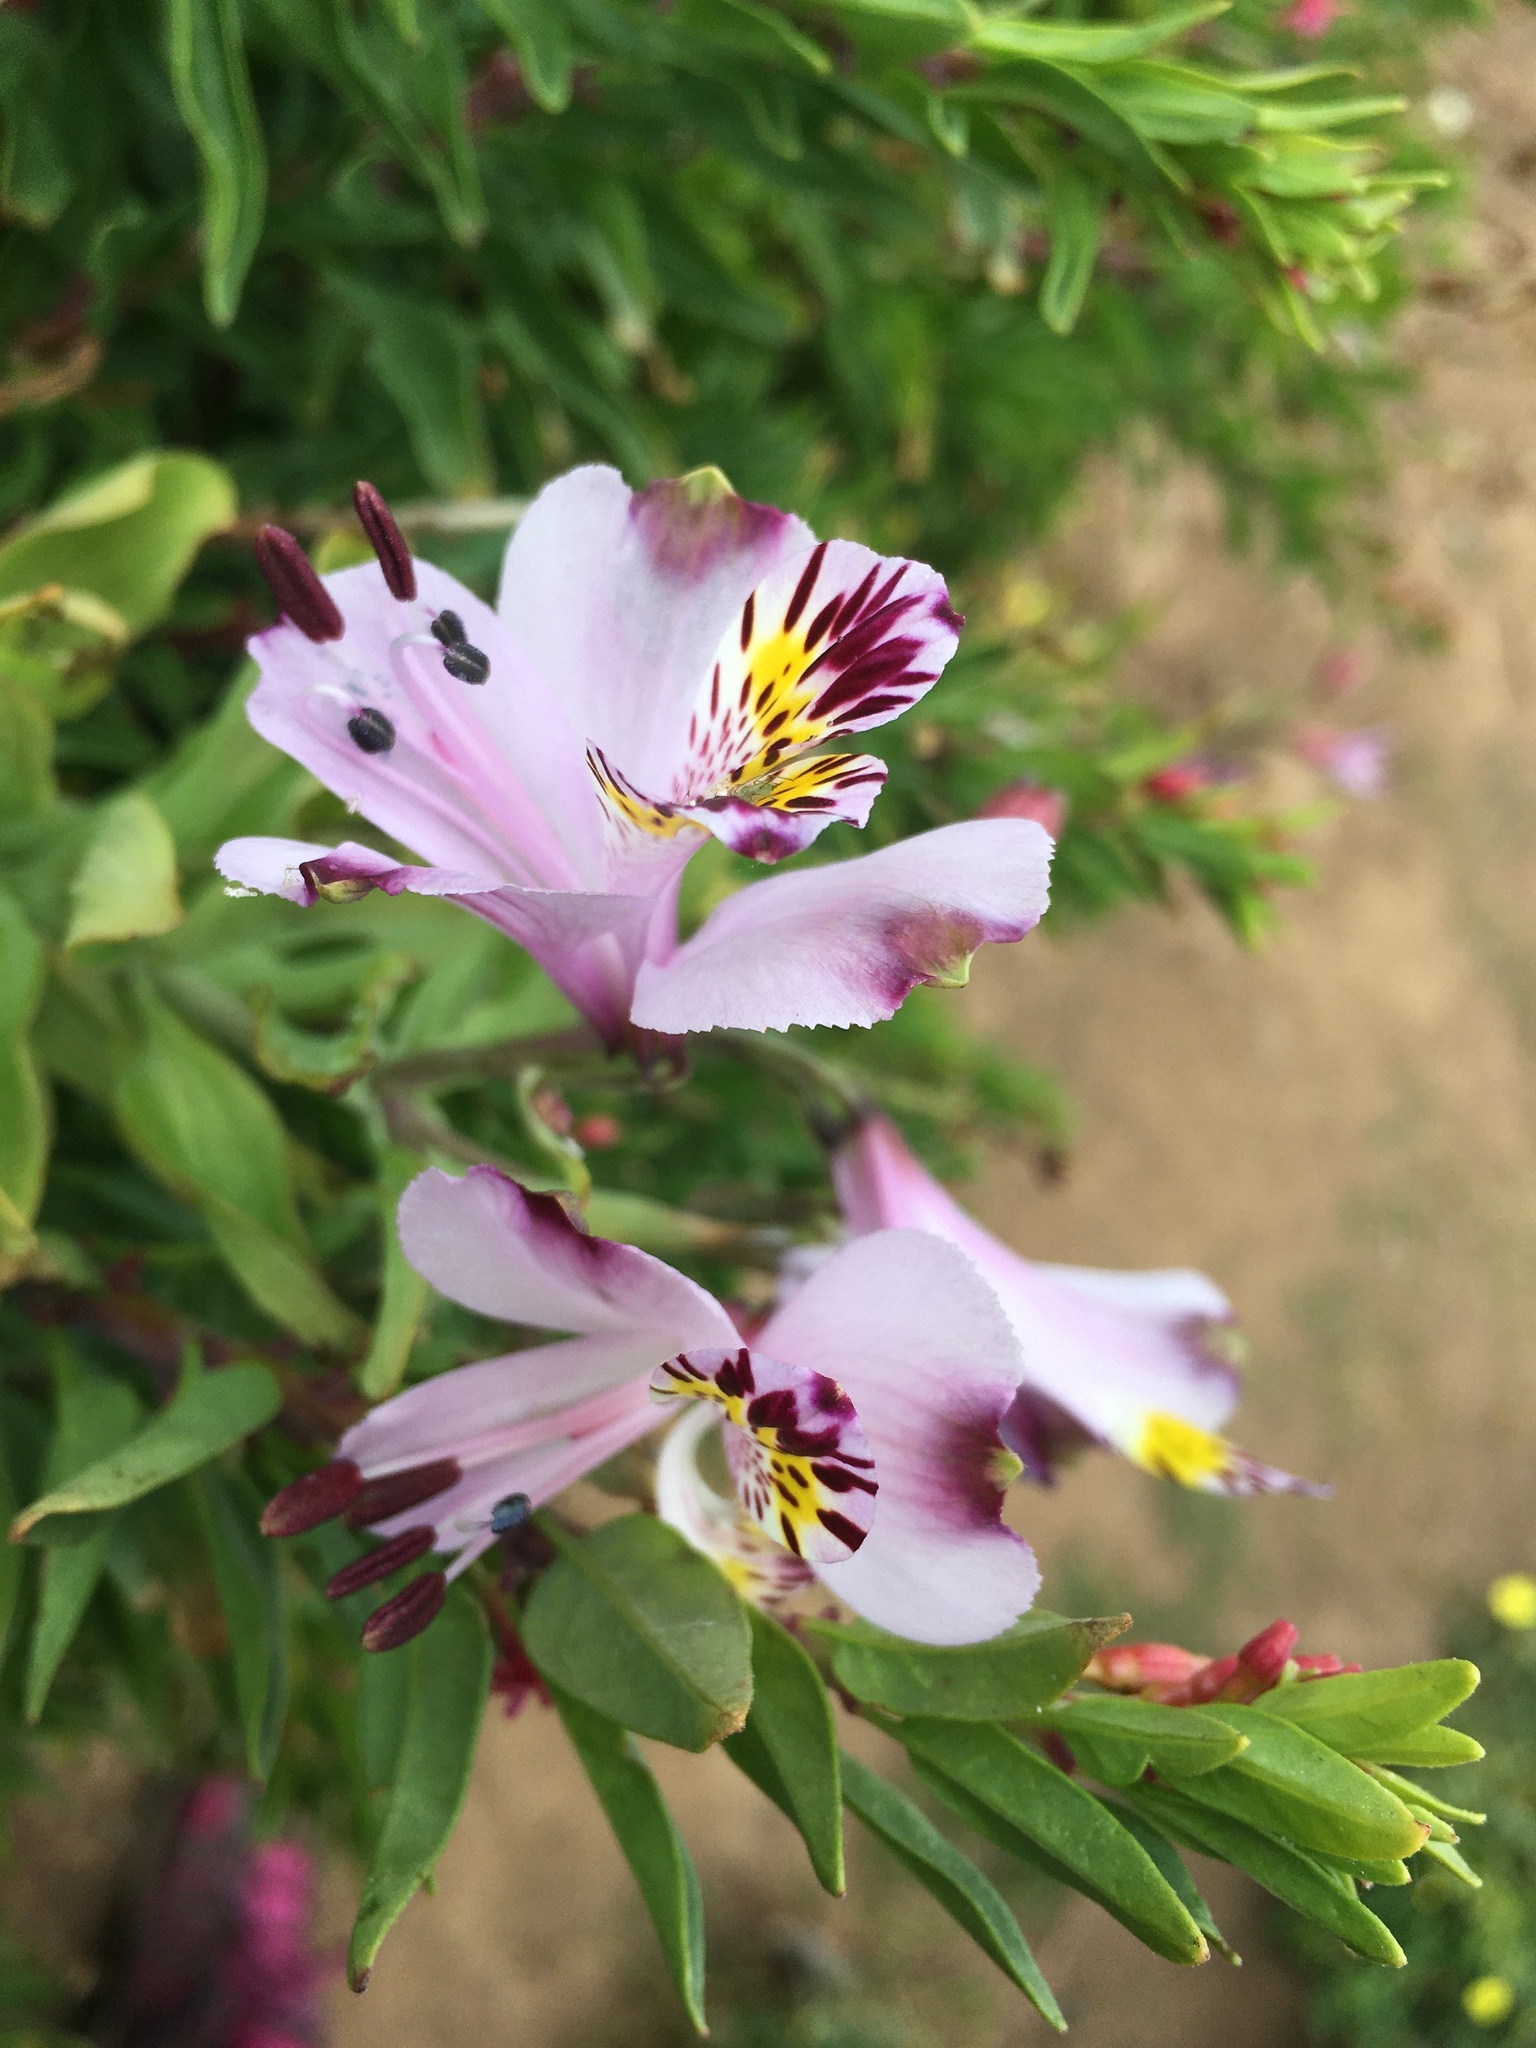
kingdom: Plantae
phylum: Tracheophyta
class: Liliopsida
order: Liliales
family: Alstroemeriaceae
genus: Alstroemeria
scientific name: Alstroemeria pulchra
